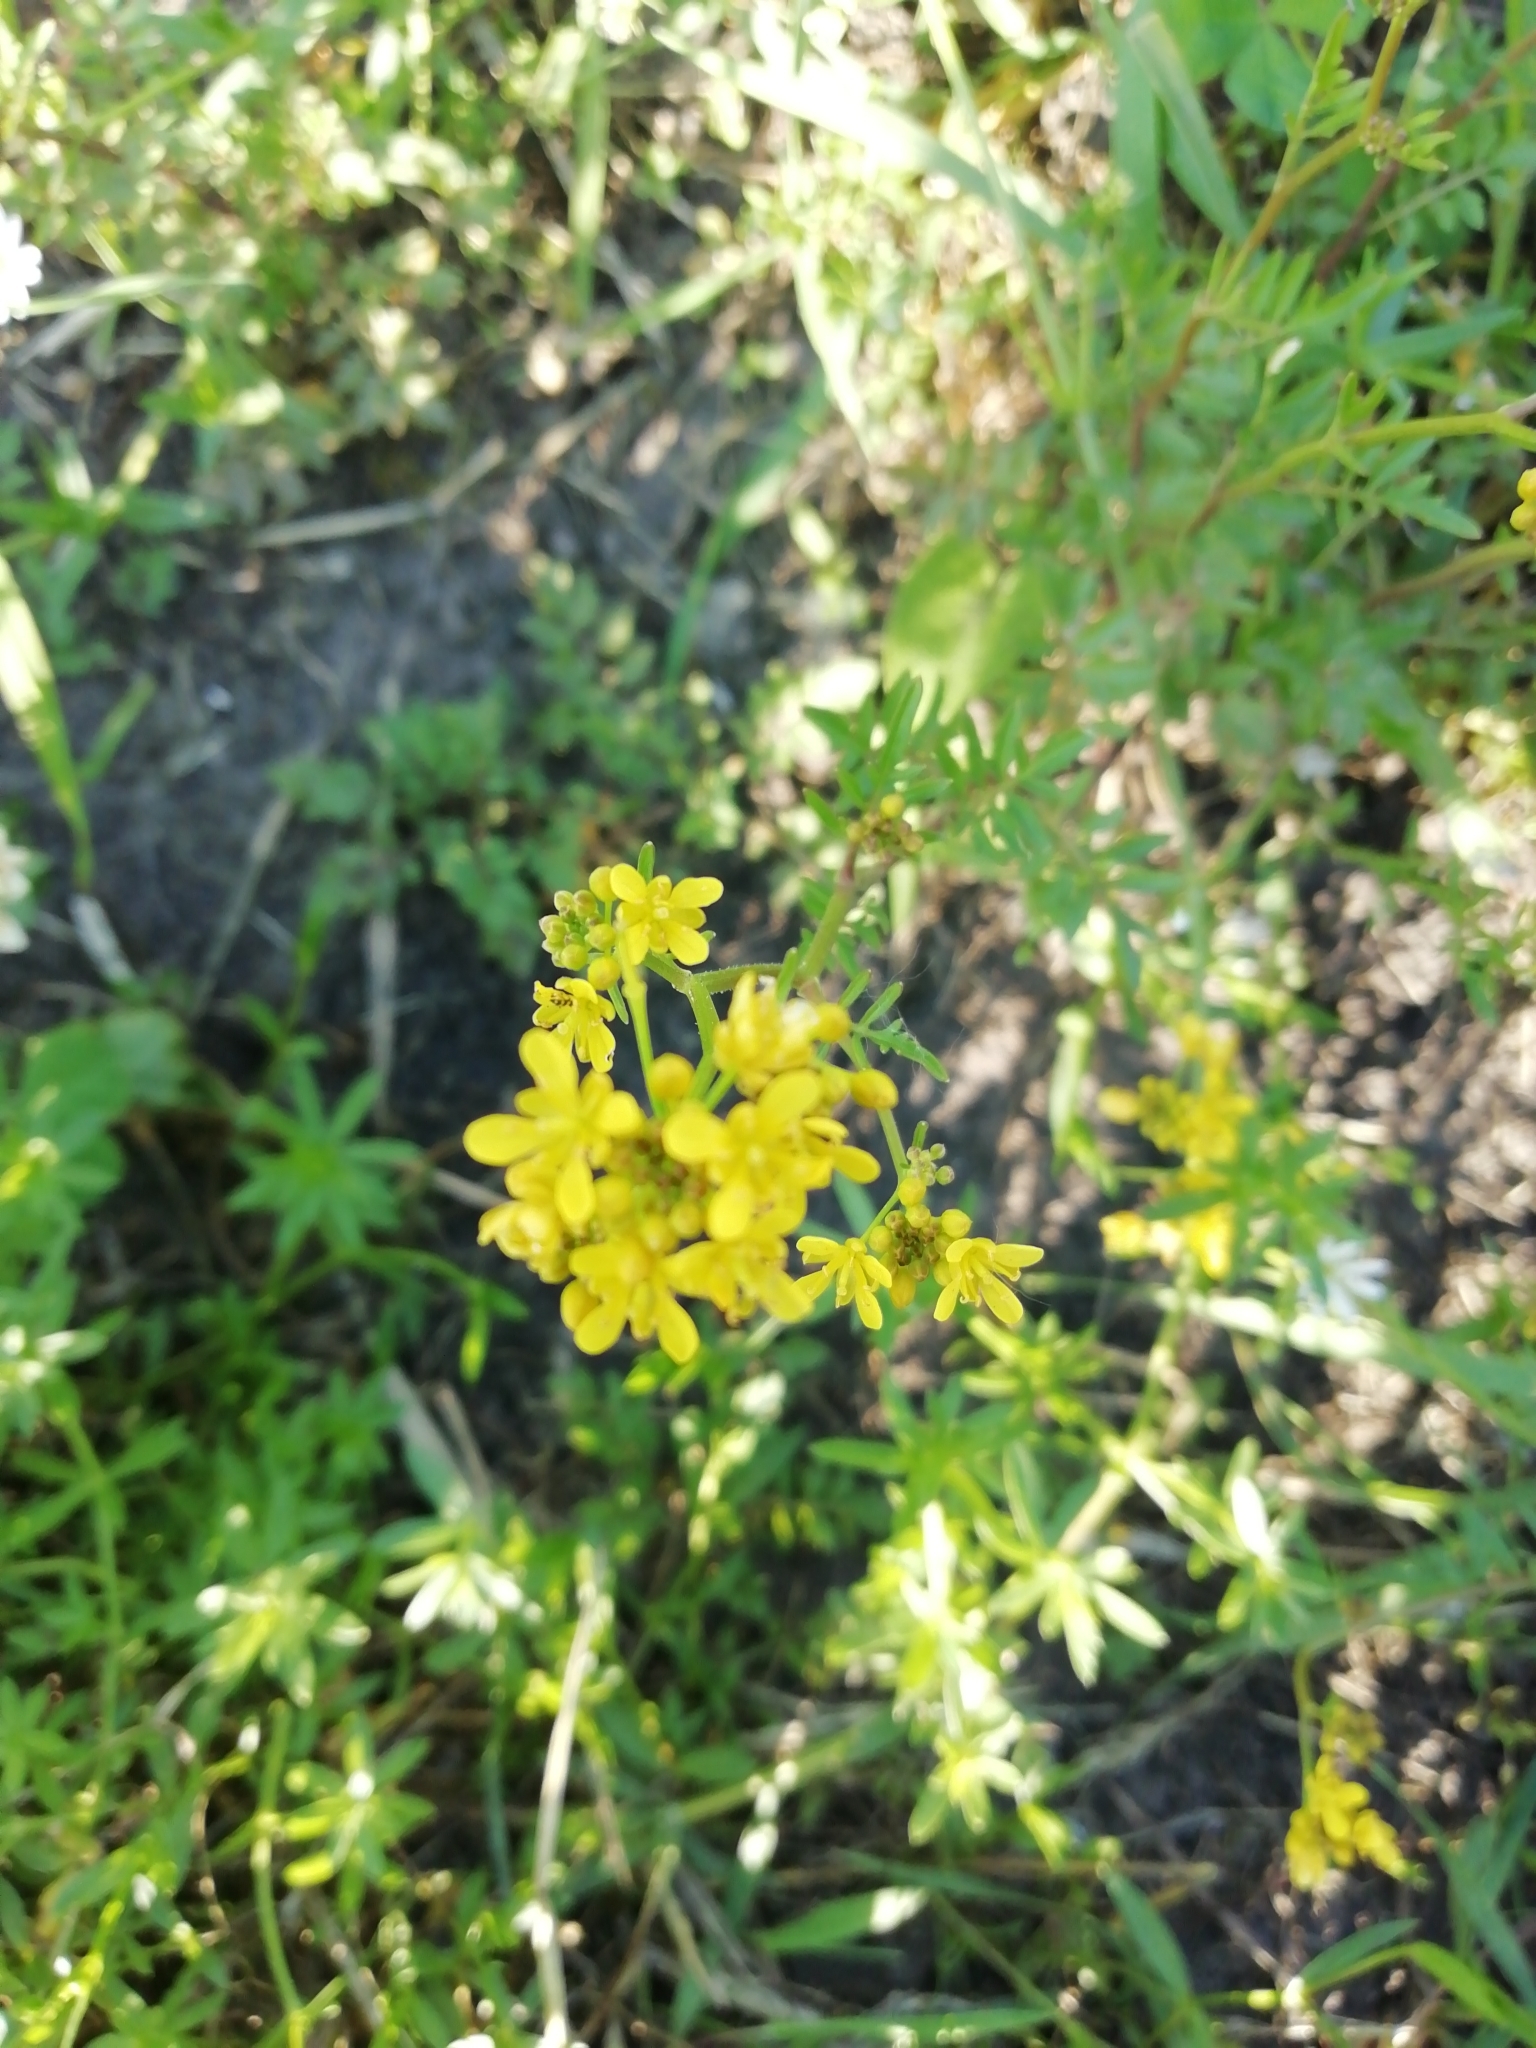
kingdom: Plantae
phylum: Tracheophyta
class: Magnoliopsida
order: Brassicales
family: Brassicaceae
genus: Rorippa
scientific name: Rorippa sylvestris
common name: Creeping yellowcress
